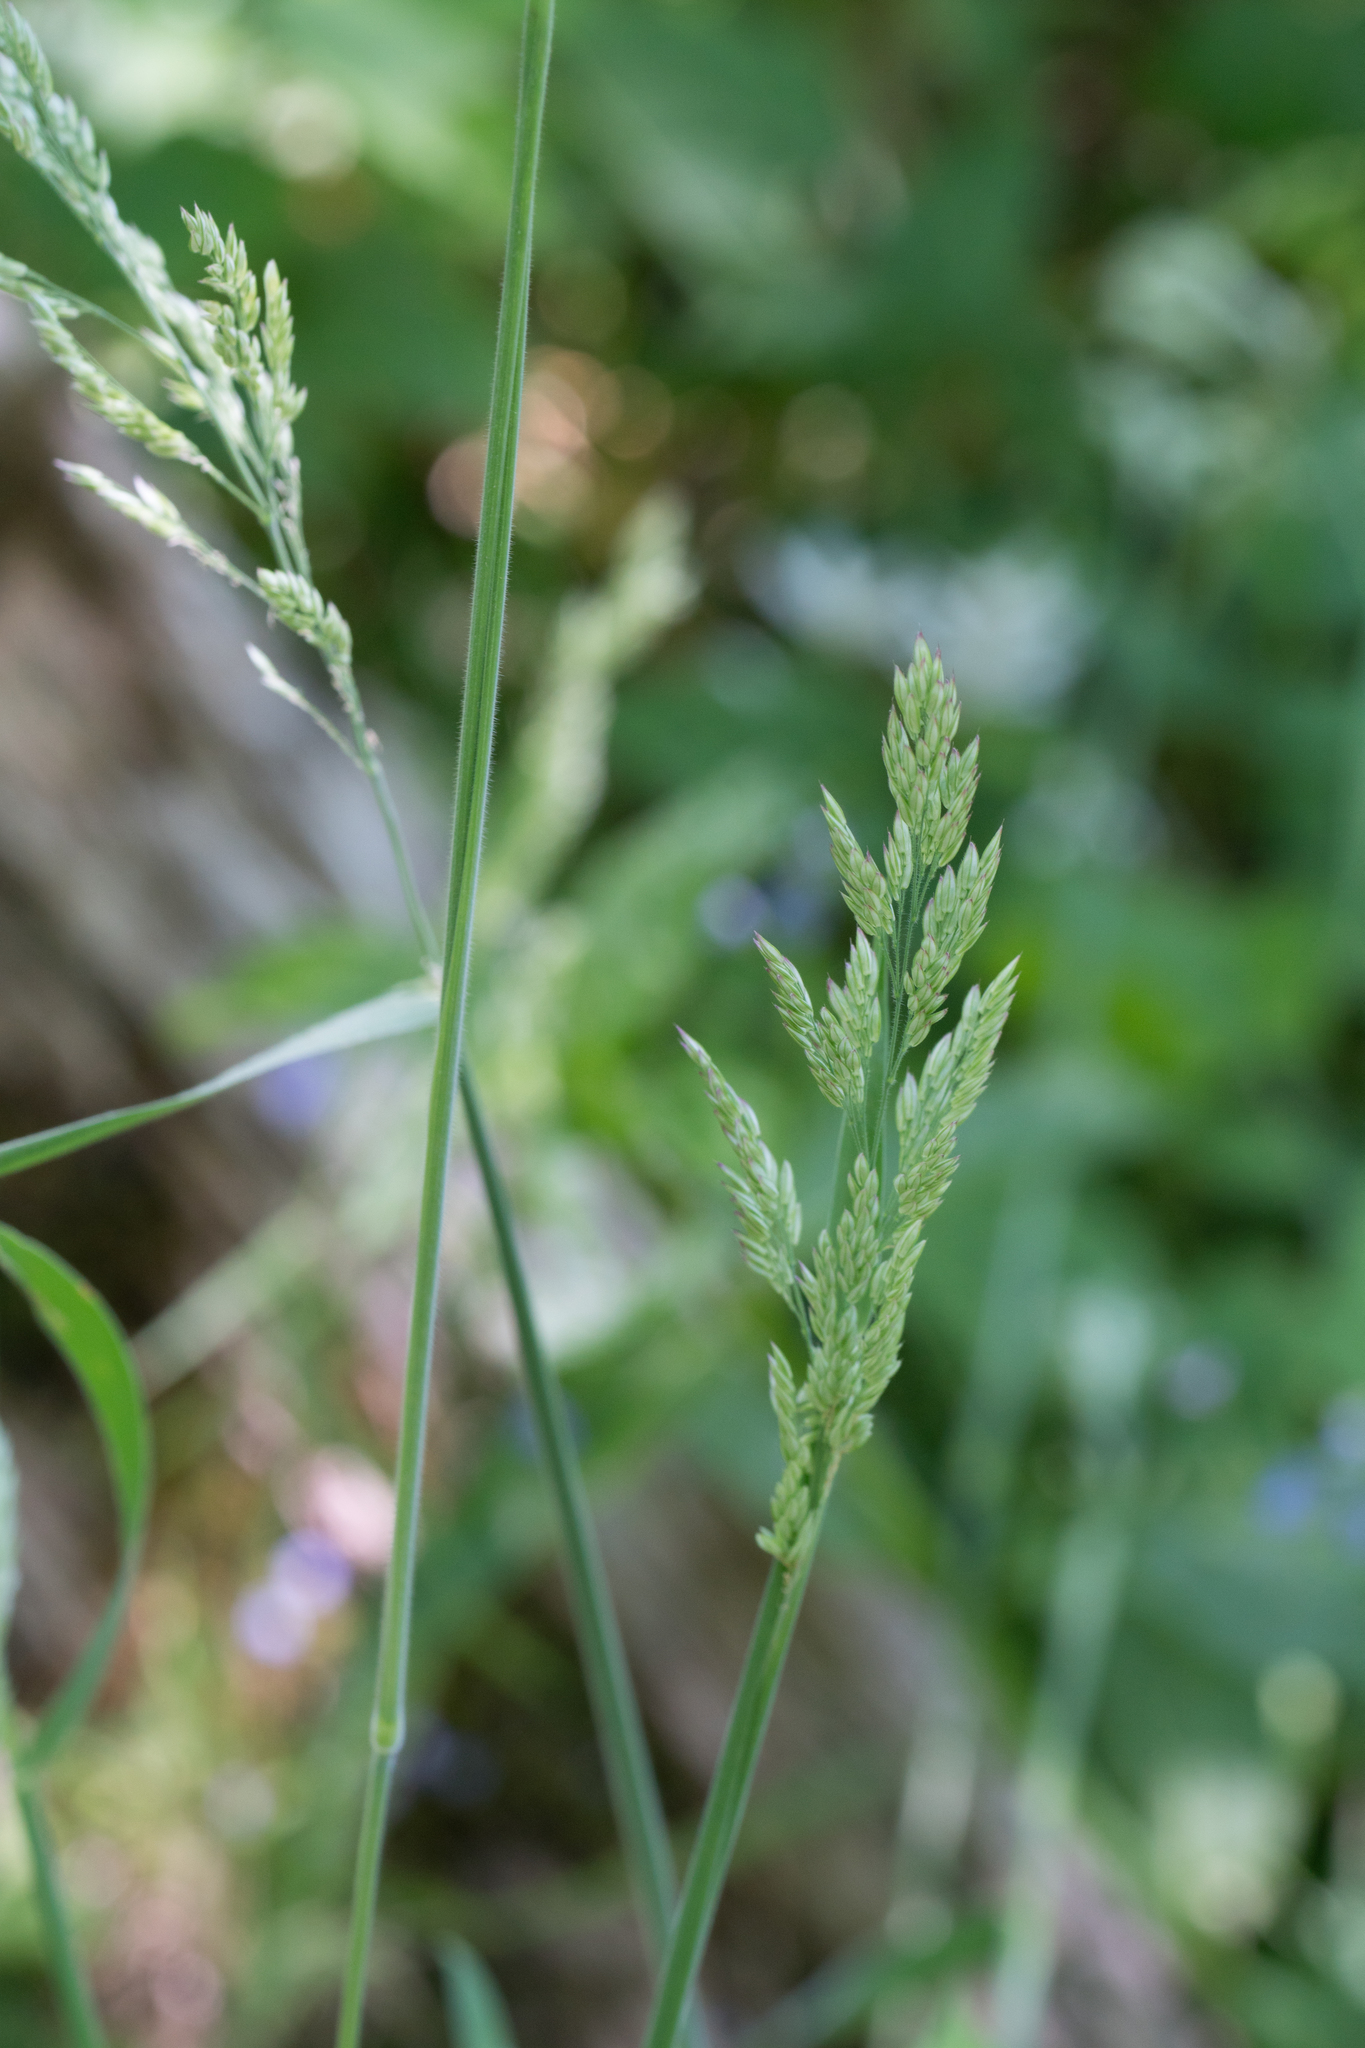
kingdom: Plantae
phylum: Tracheophyta
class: Liliopsida
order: Poales
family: Poaceae
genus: Holcus
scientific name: Holcus lanatus
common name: Yorkshire-fog
